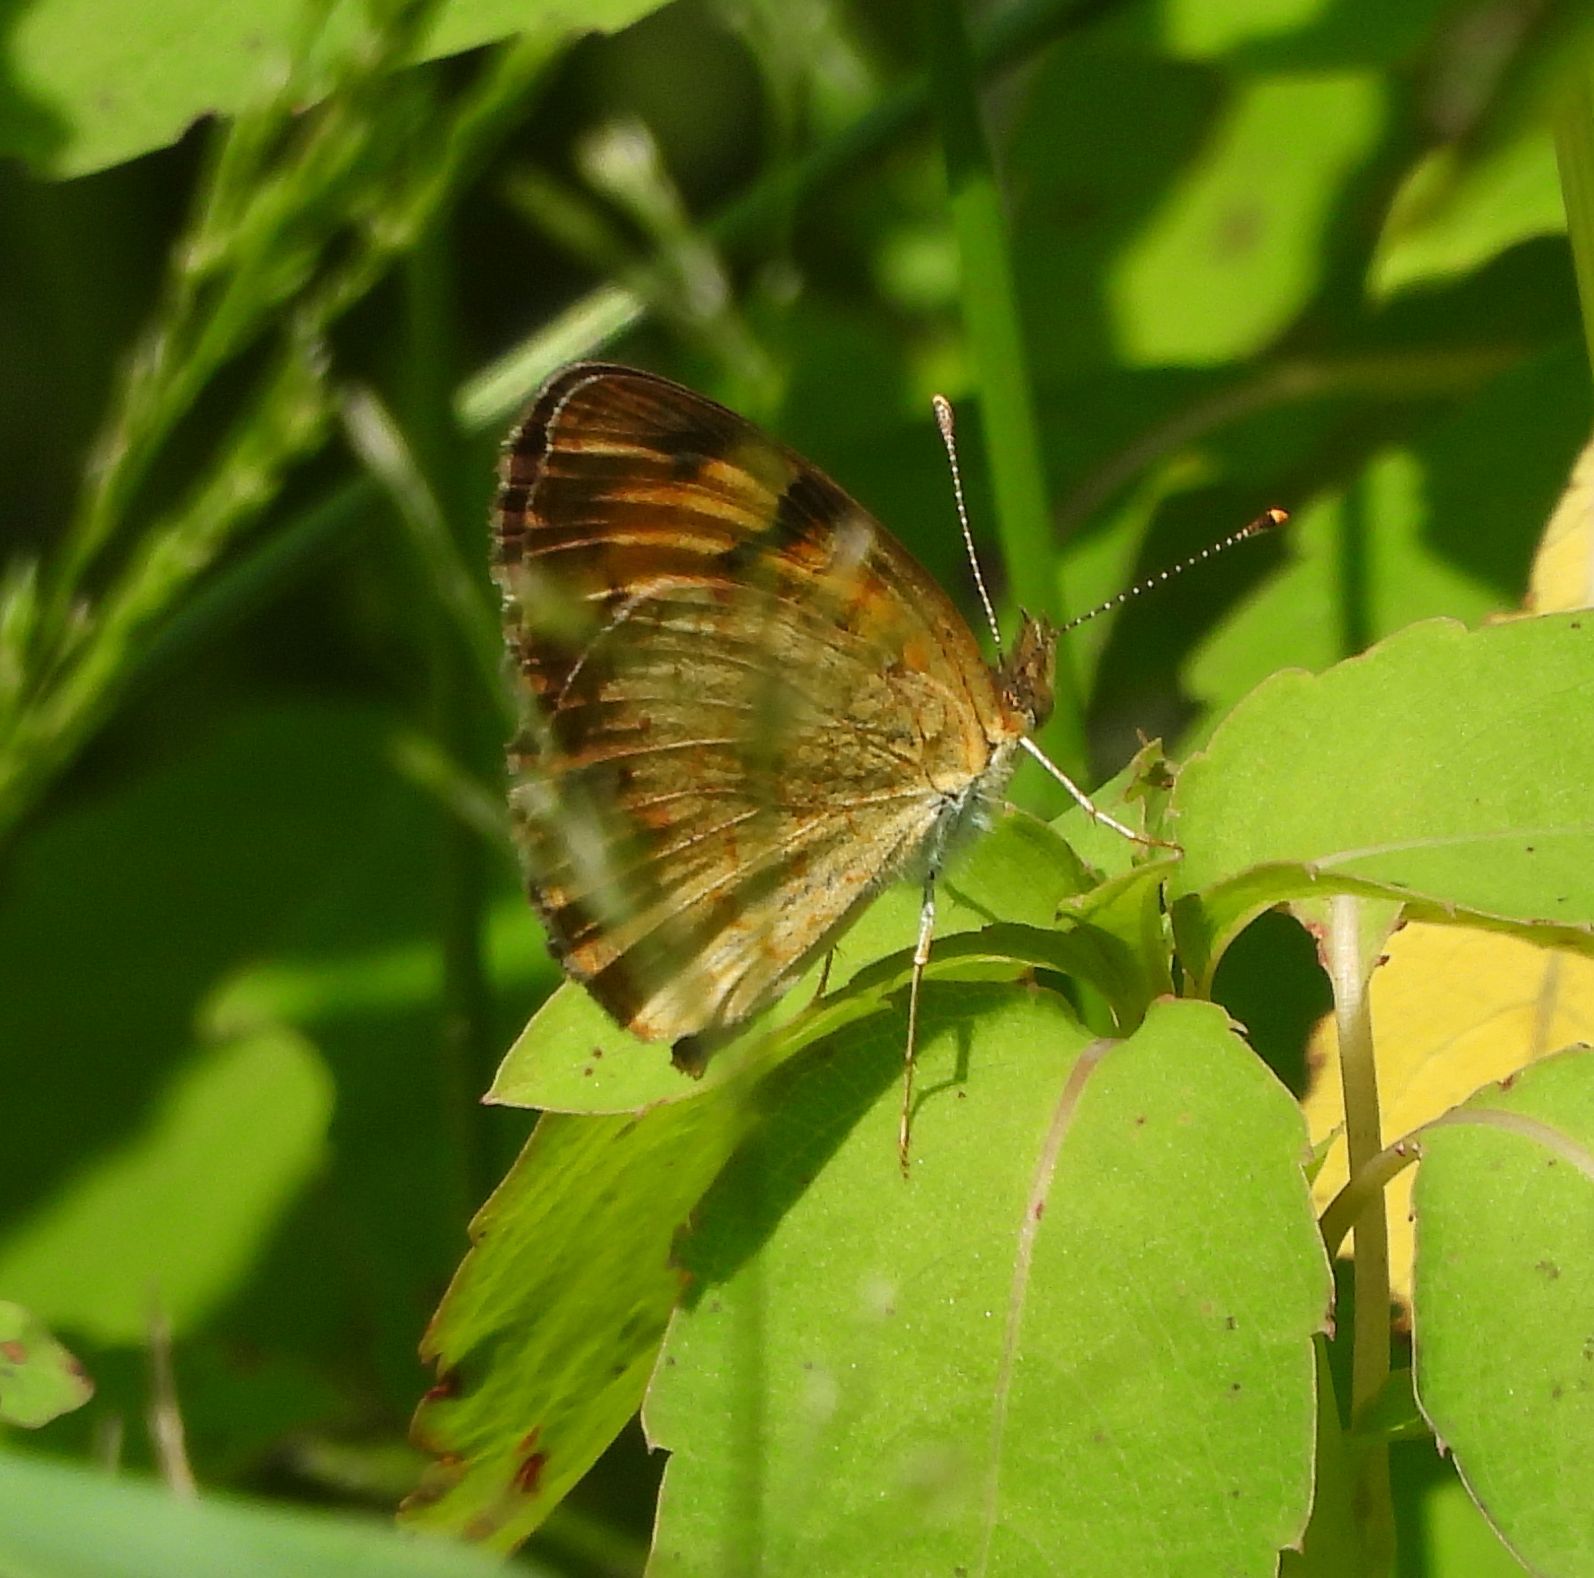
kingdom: Animalia
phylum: Arthropoda
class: Insecta
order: Lepidoptera
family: Nymphalidae
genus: Phyciodes
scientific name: Phyciodes tharos
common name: Pearl crescent
